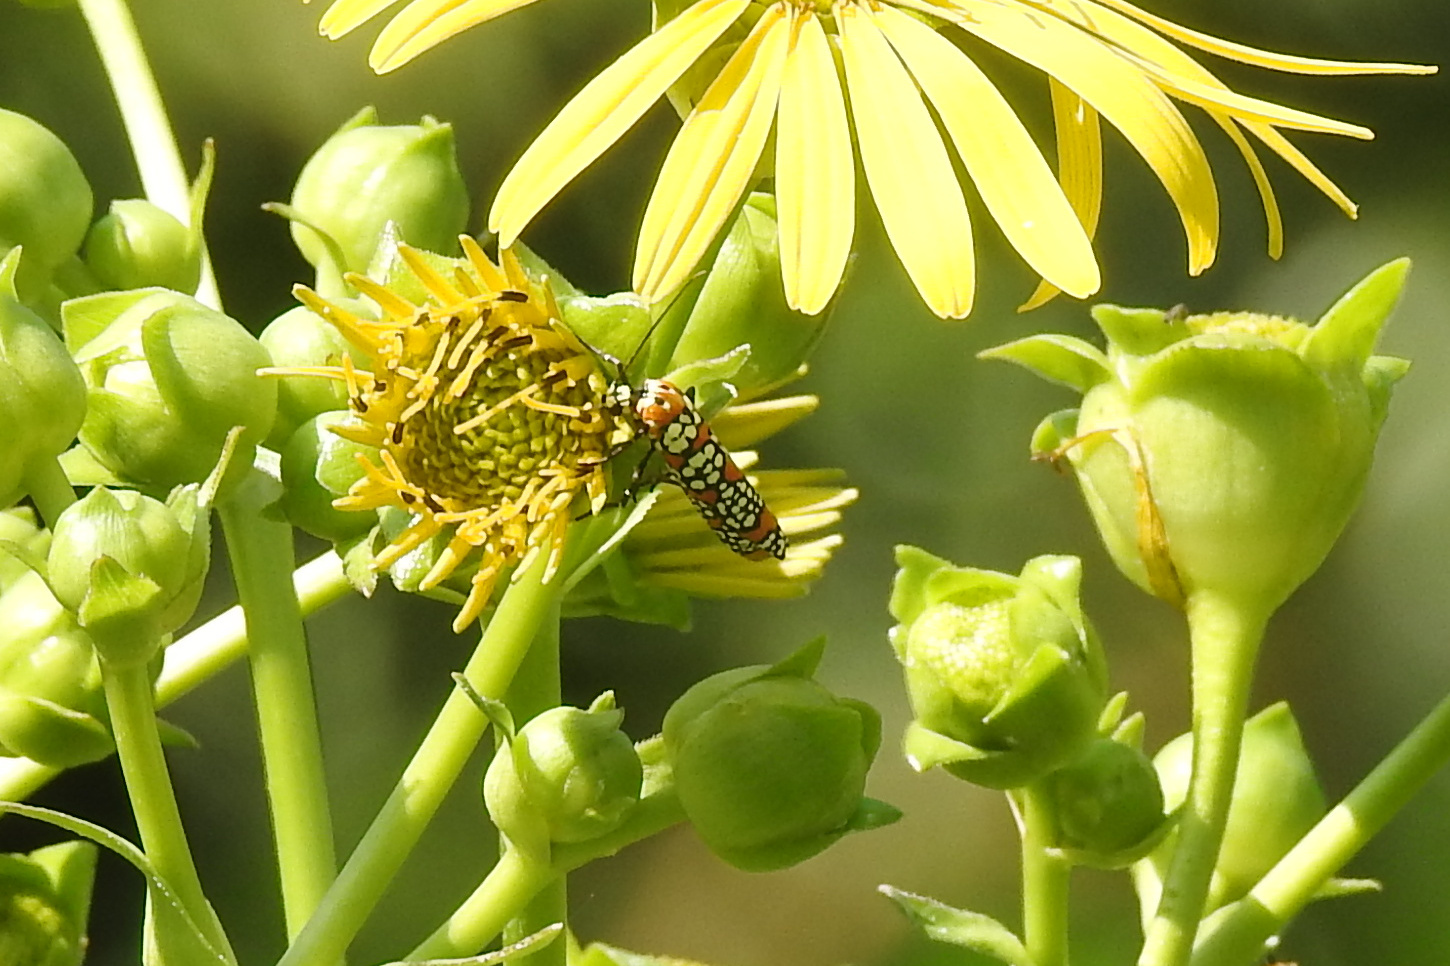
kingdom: Animalia
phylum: Arthropoda
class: Insecta
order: Lepidoptera
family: Attevidae
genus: Atteva
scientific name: Atteva punctella
